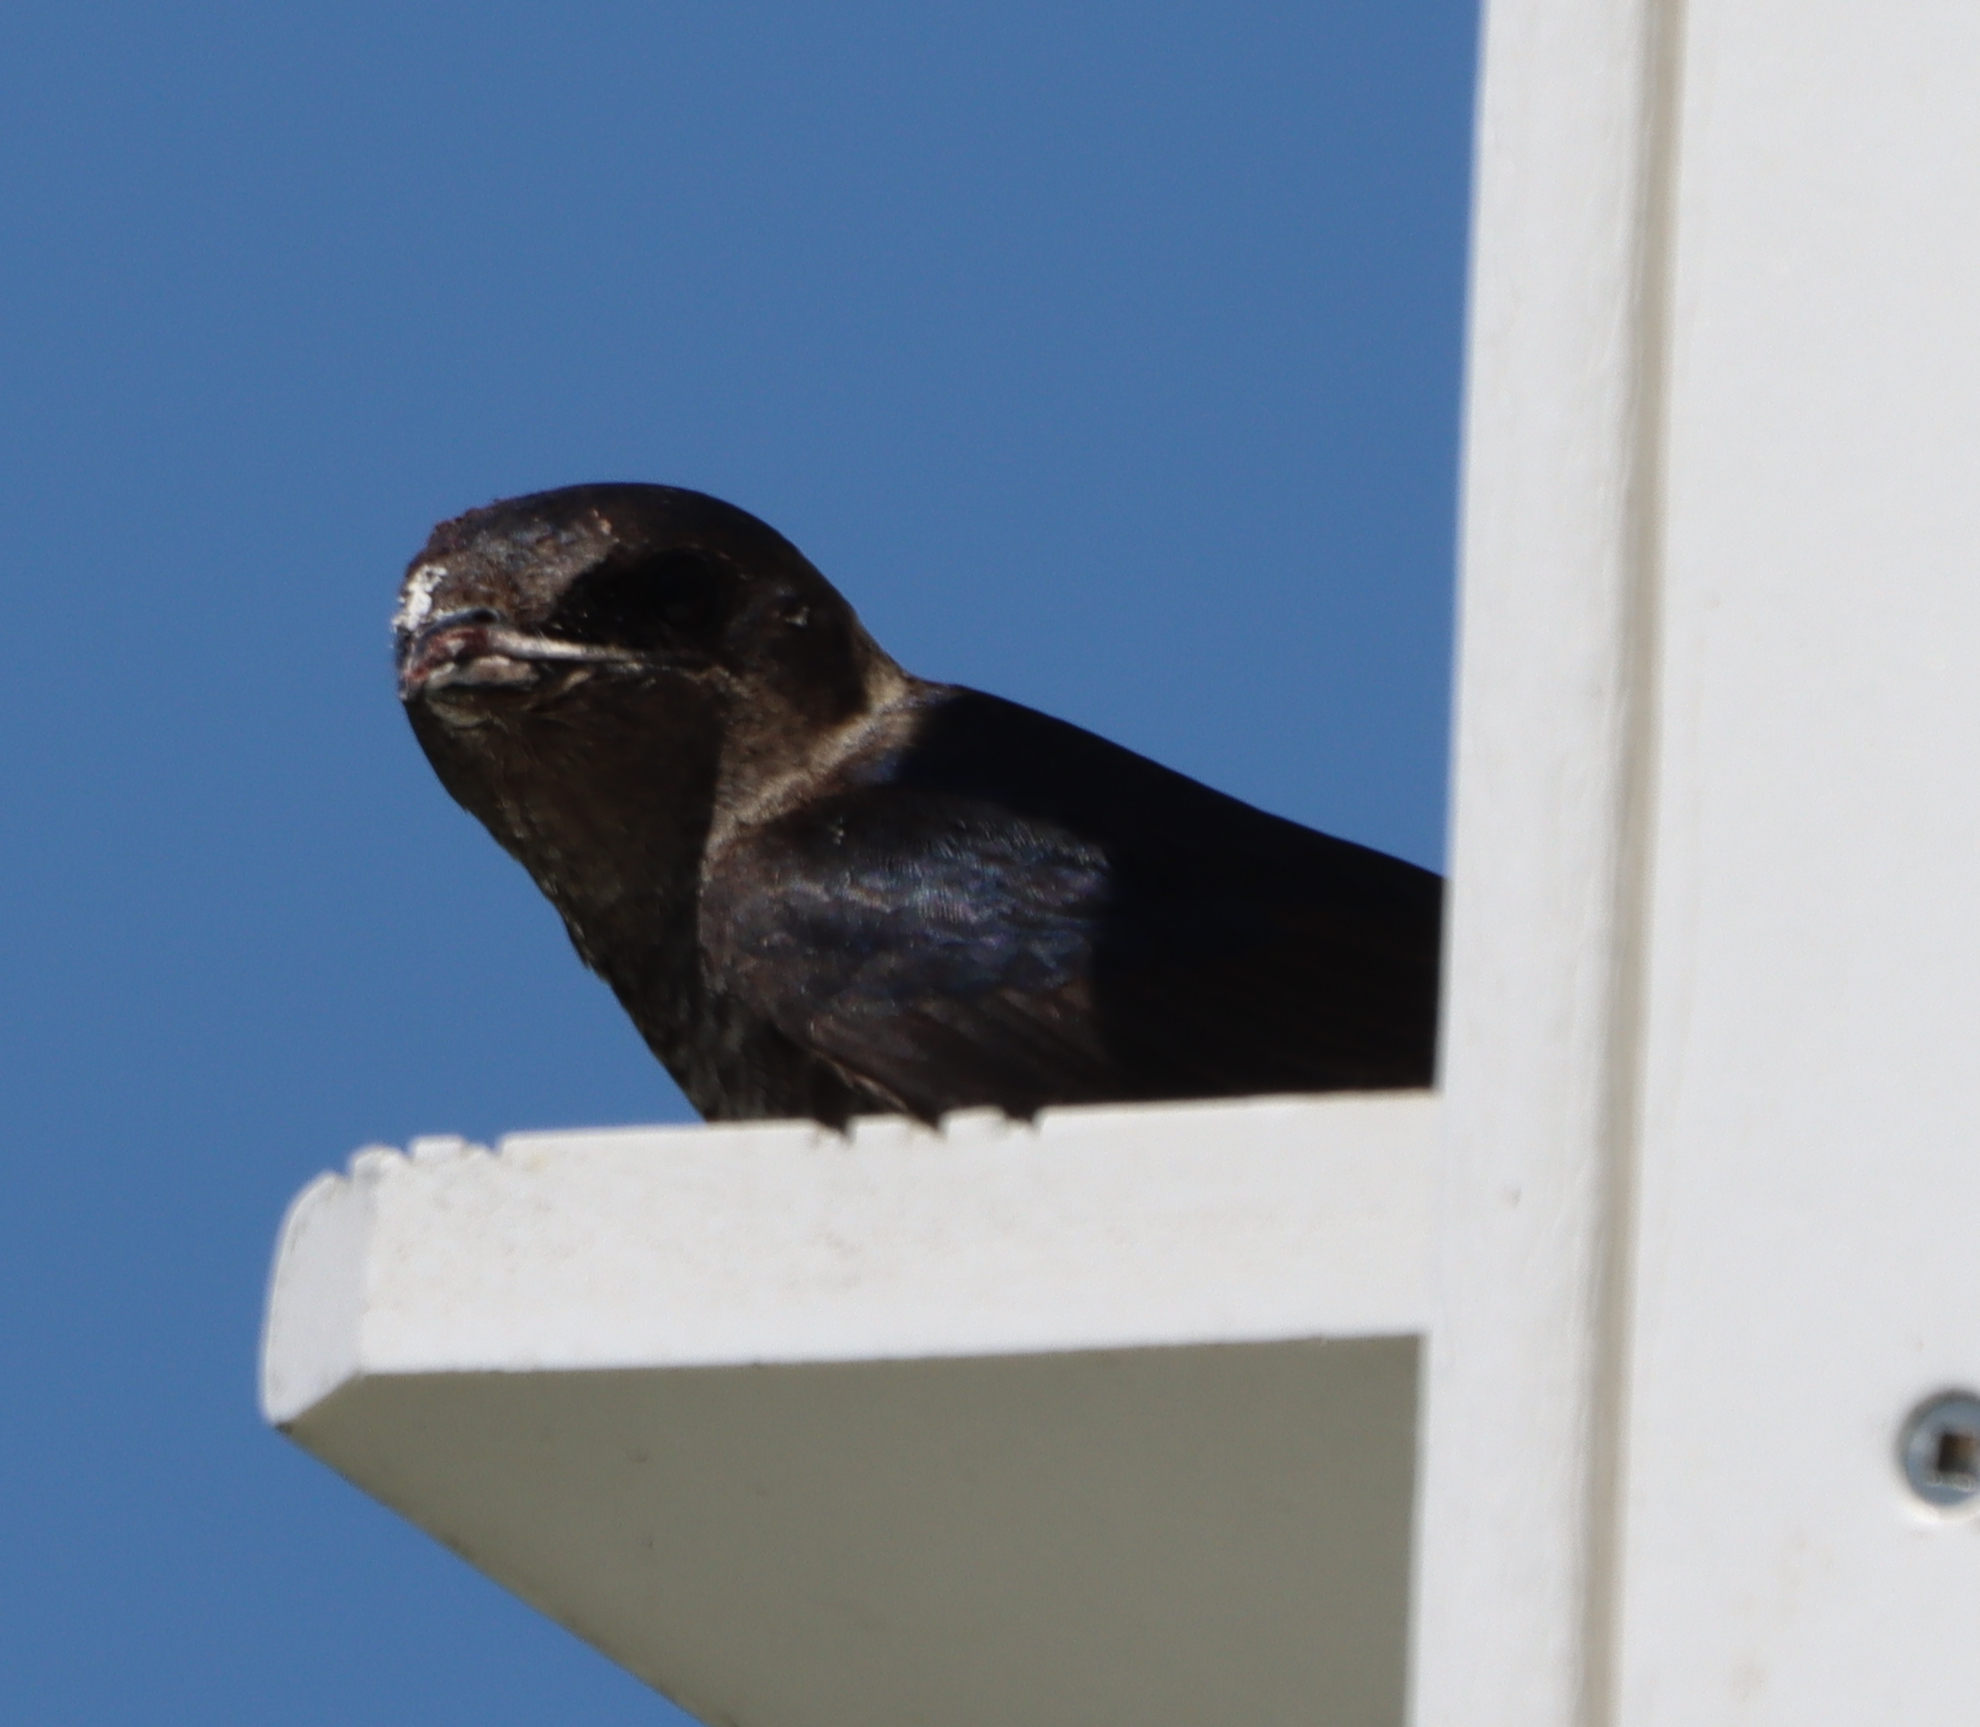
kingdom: Animalia
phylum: Chordata
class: Aves
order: Passeriformes
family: Hirundinidae
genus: Progne
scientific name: Progne subis
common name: Purple martin
